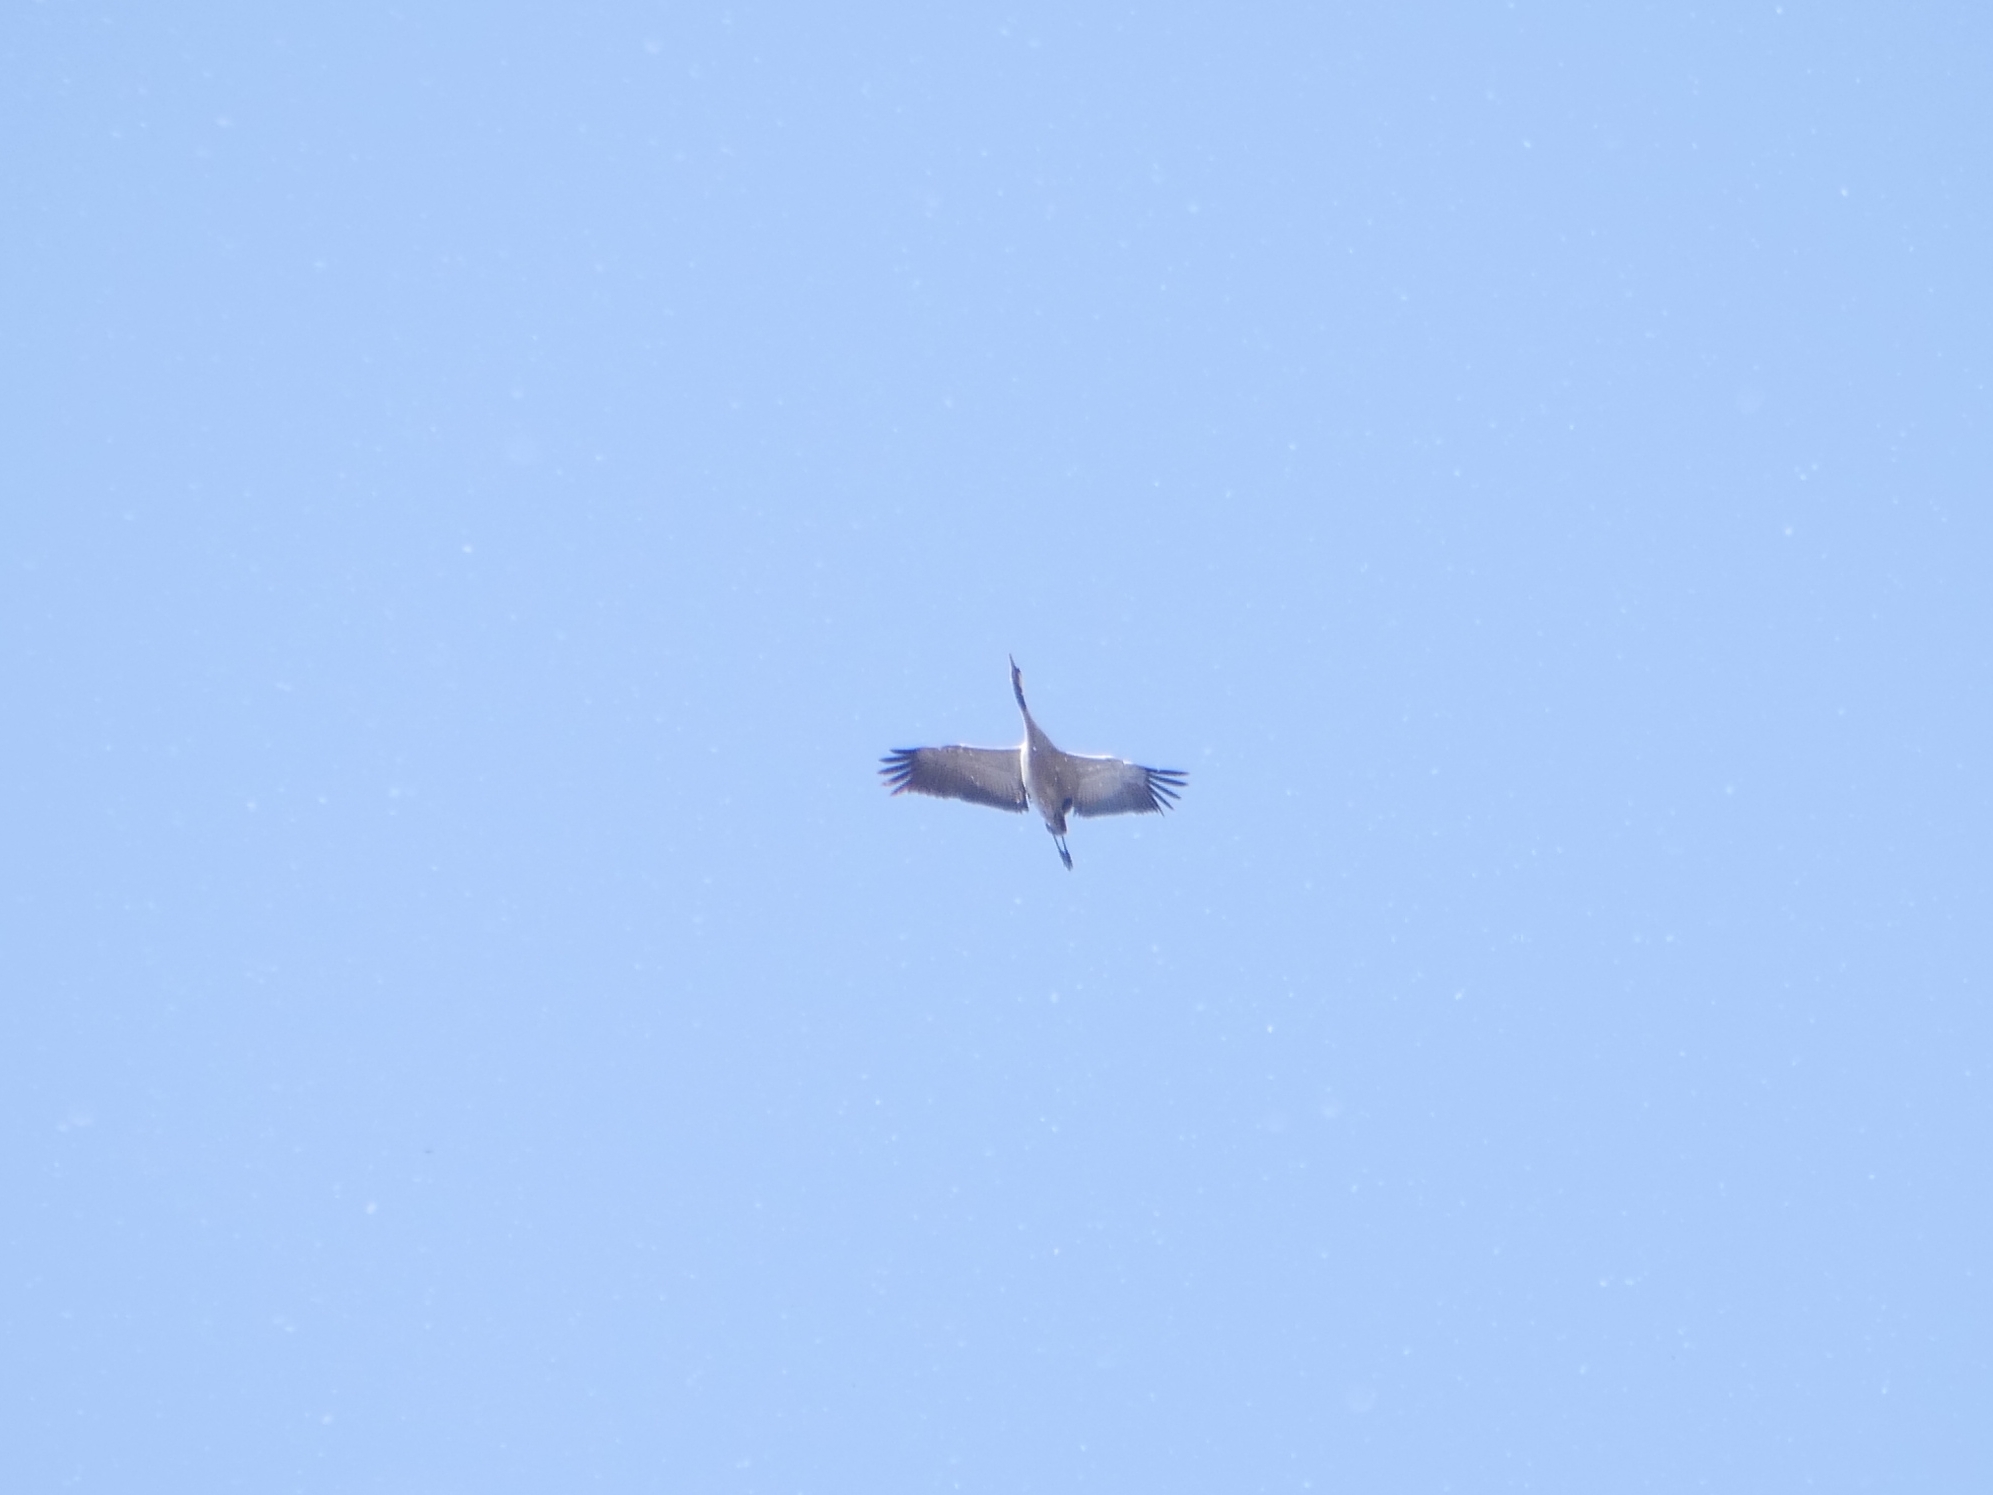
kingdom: Animalia
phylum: Chordata
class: Aves
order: Gruiformes
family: Gruidae
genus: Grus
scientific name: Grus grus
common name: Common crane
